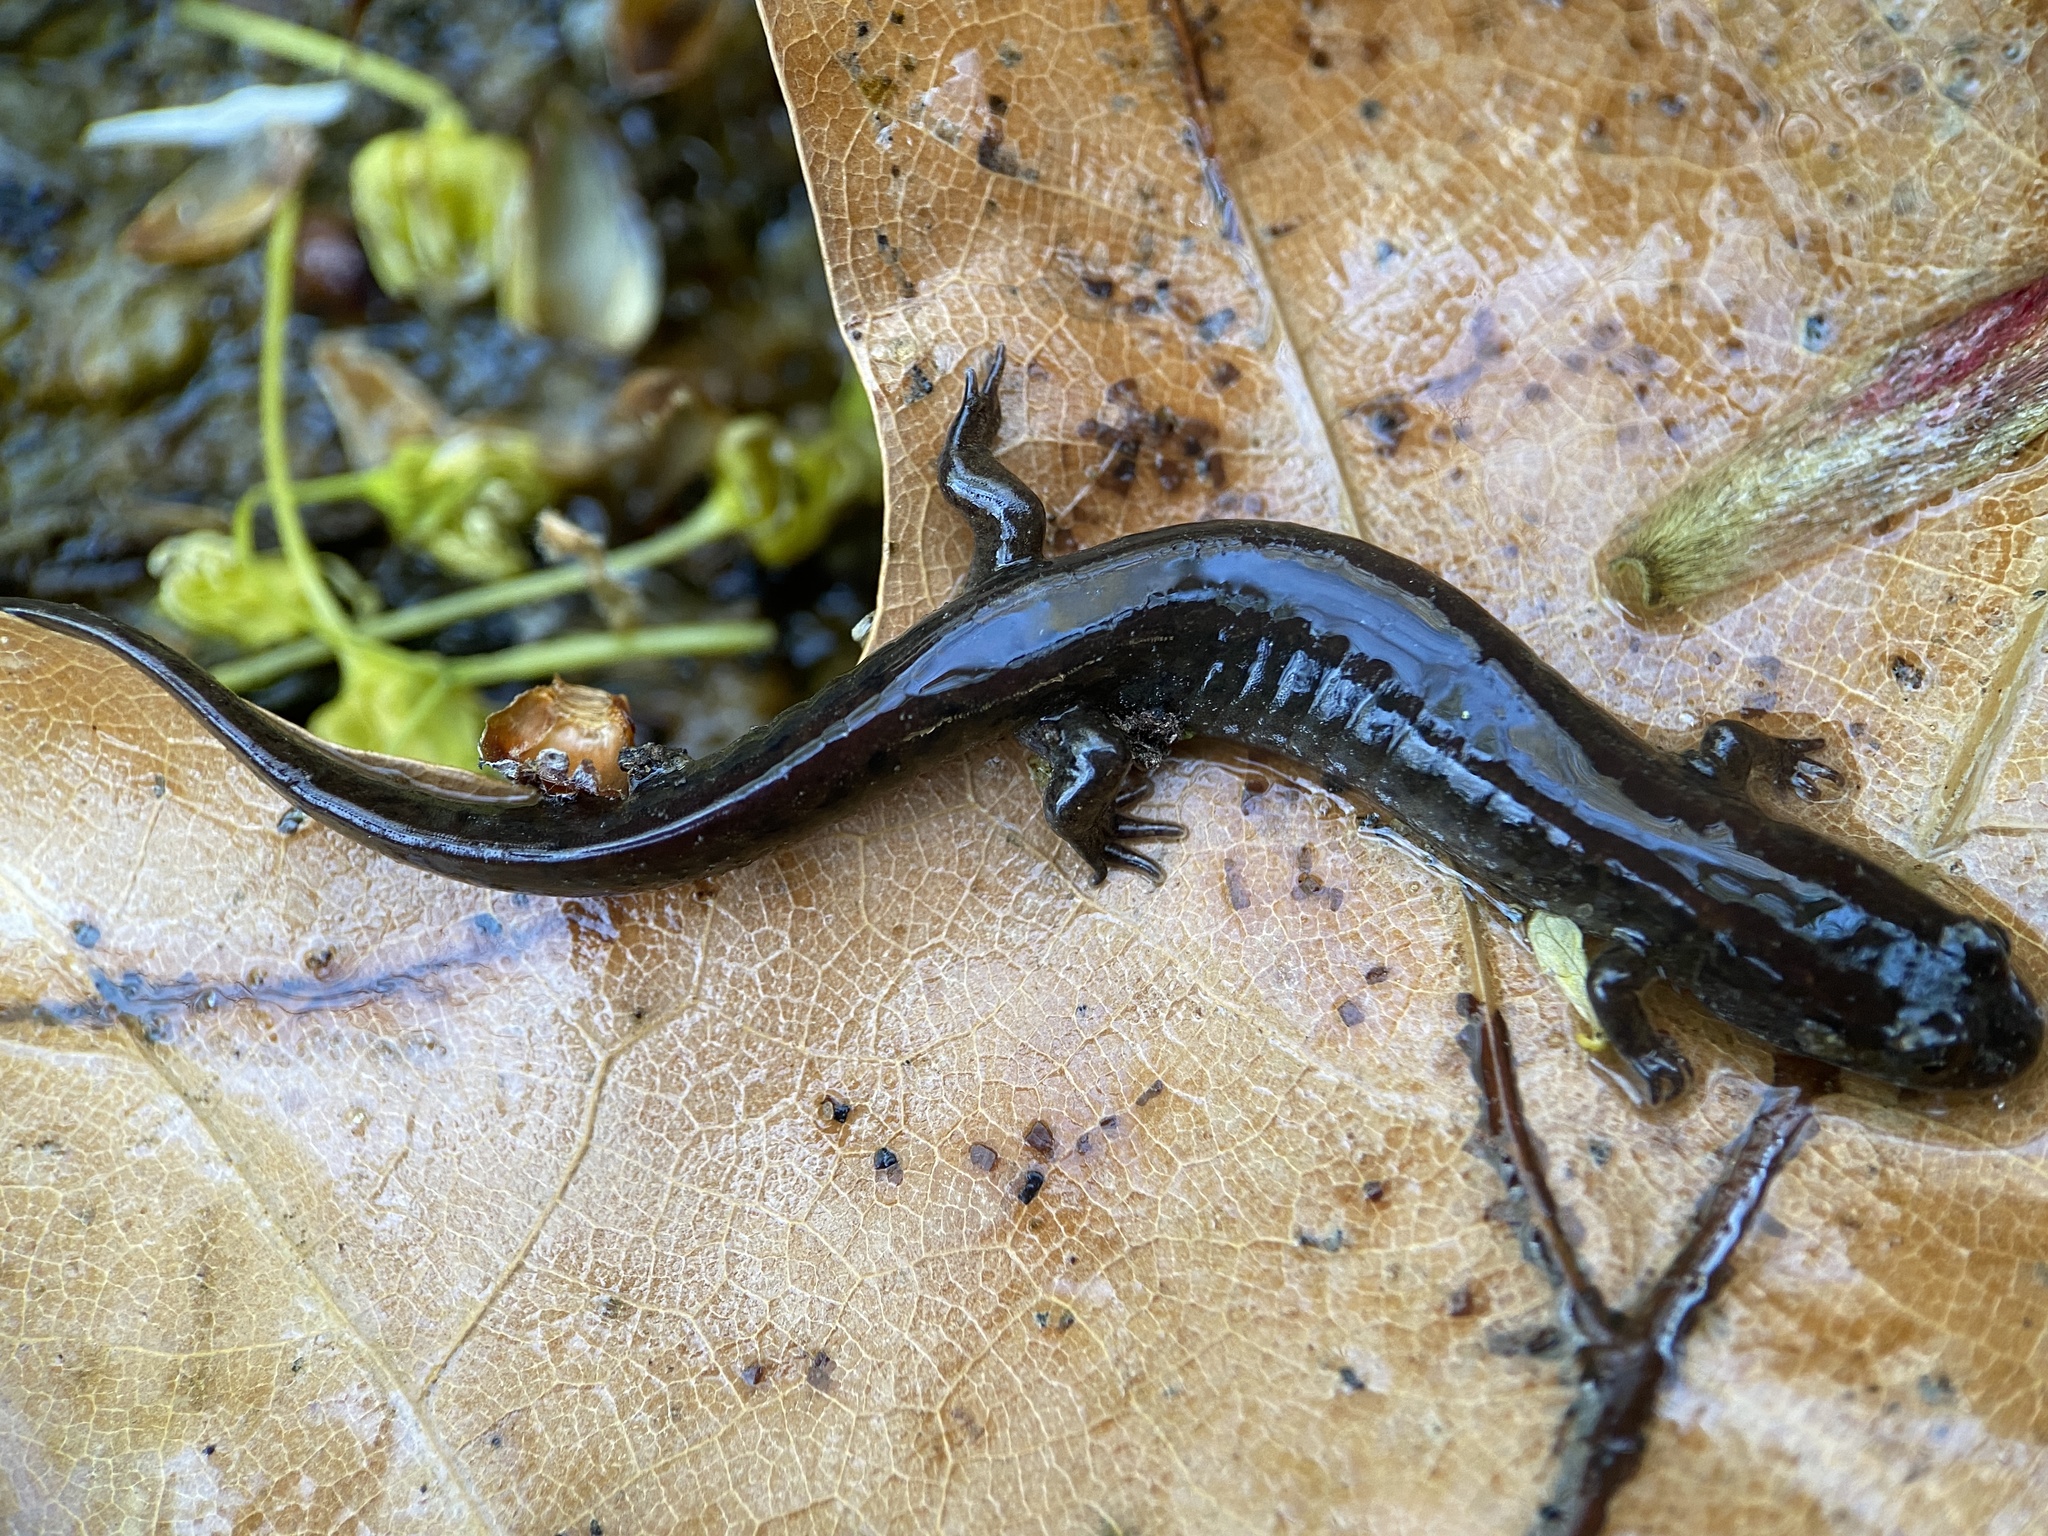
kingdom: Animalia
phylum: Chordata
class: Amphibia
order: Caudata
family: Plethodontidae
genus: Desmognathus
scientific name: Desmognathus fuscus
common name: Northern dusky salamander
